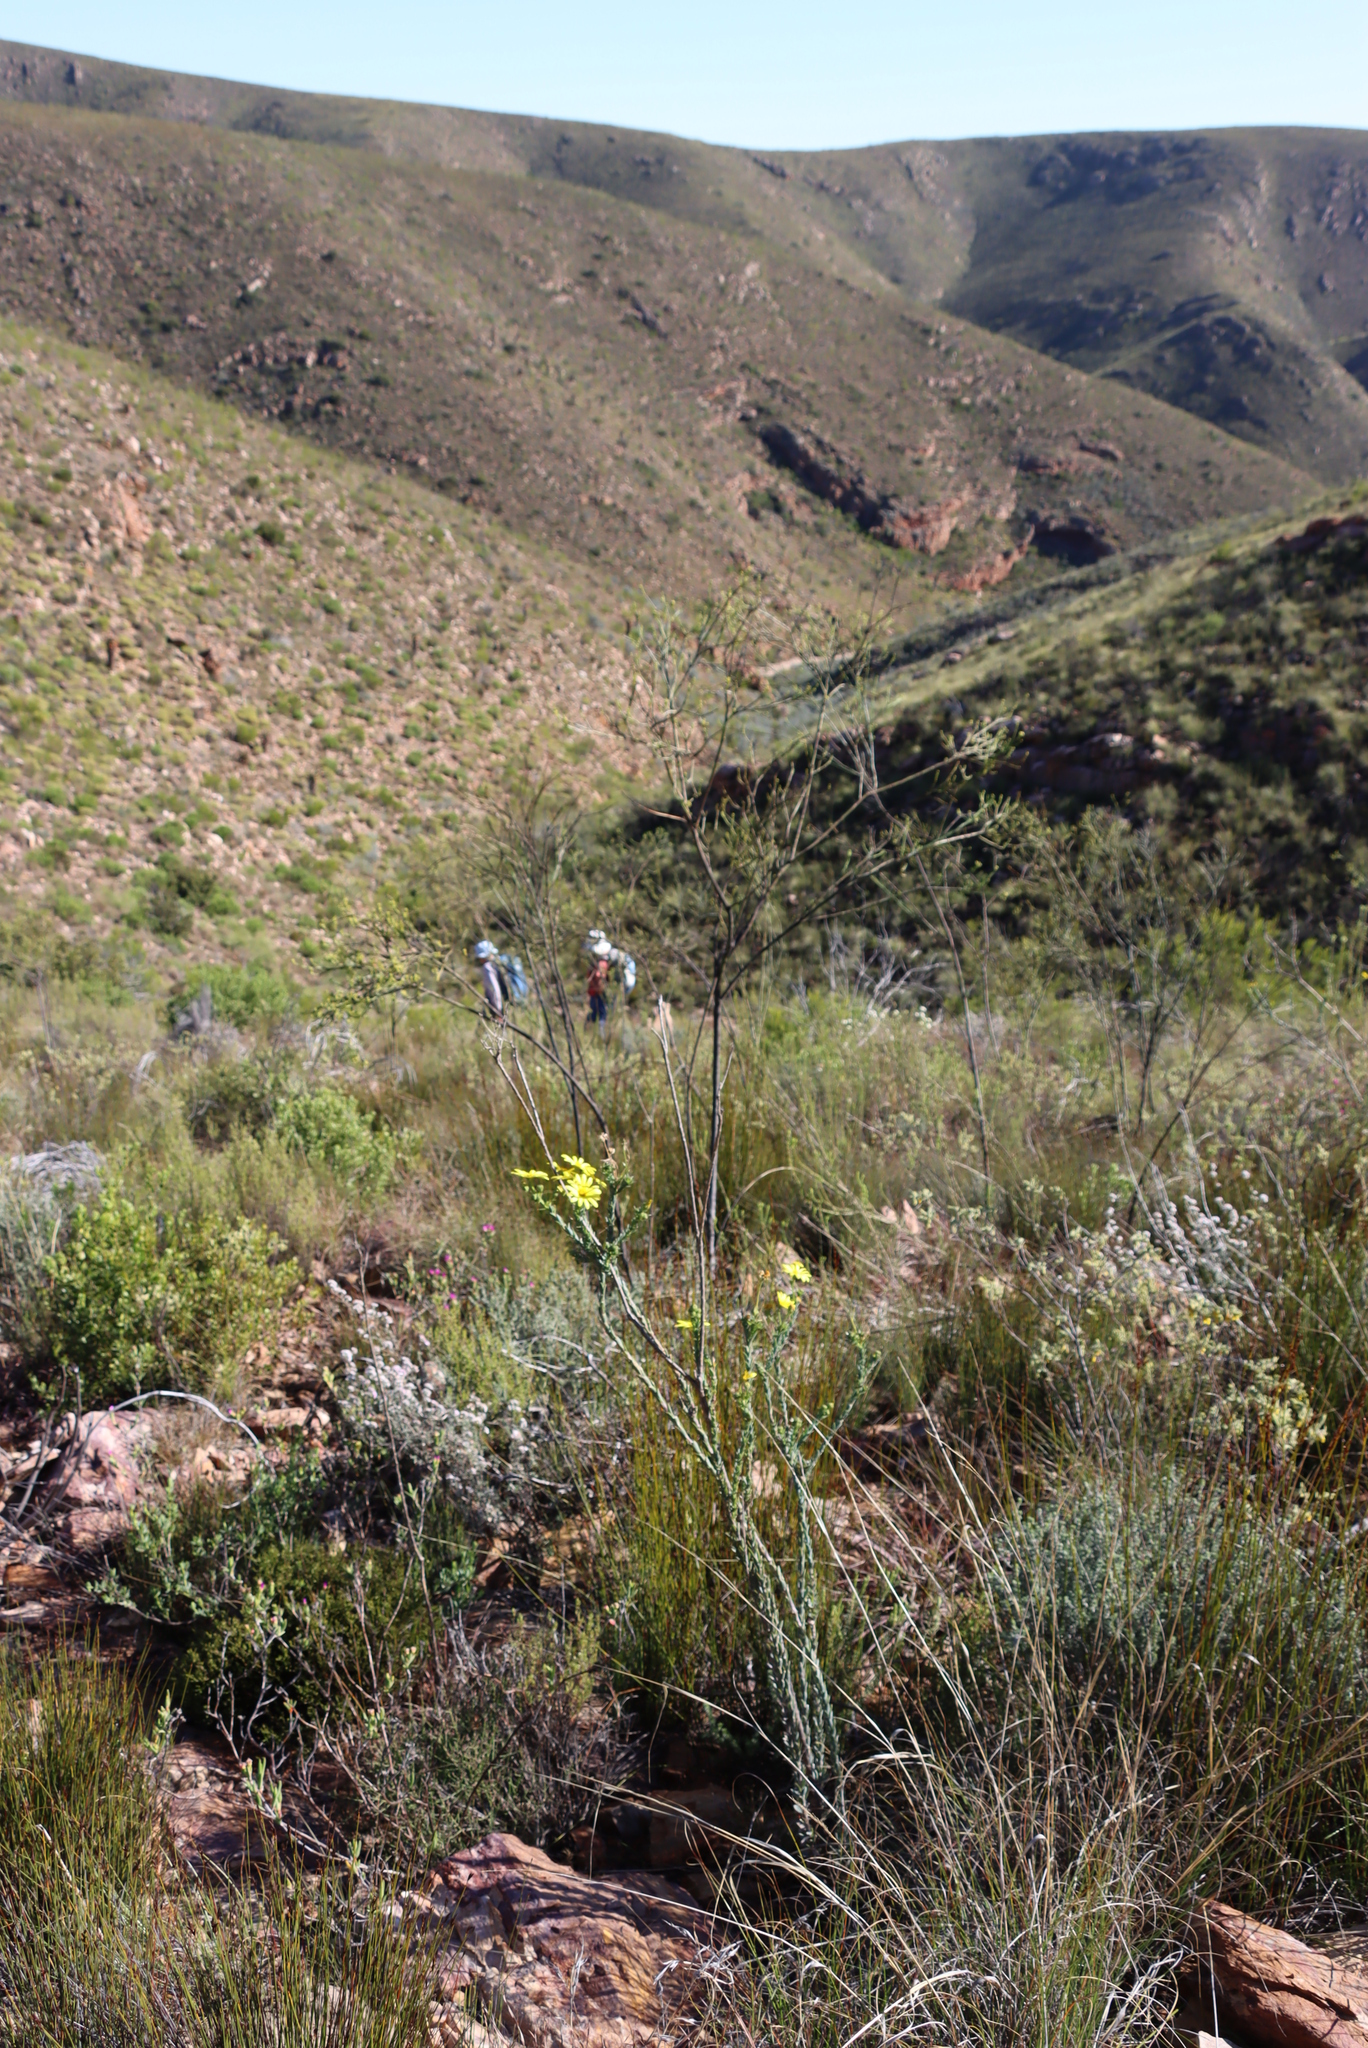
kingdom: Plantae
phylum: Tracheophyta
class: Magnoliopsida
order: Asterales
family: Asteraceae
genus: Euryops
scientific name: Euryops lateriflorus
